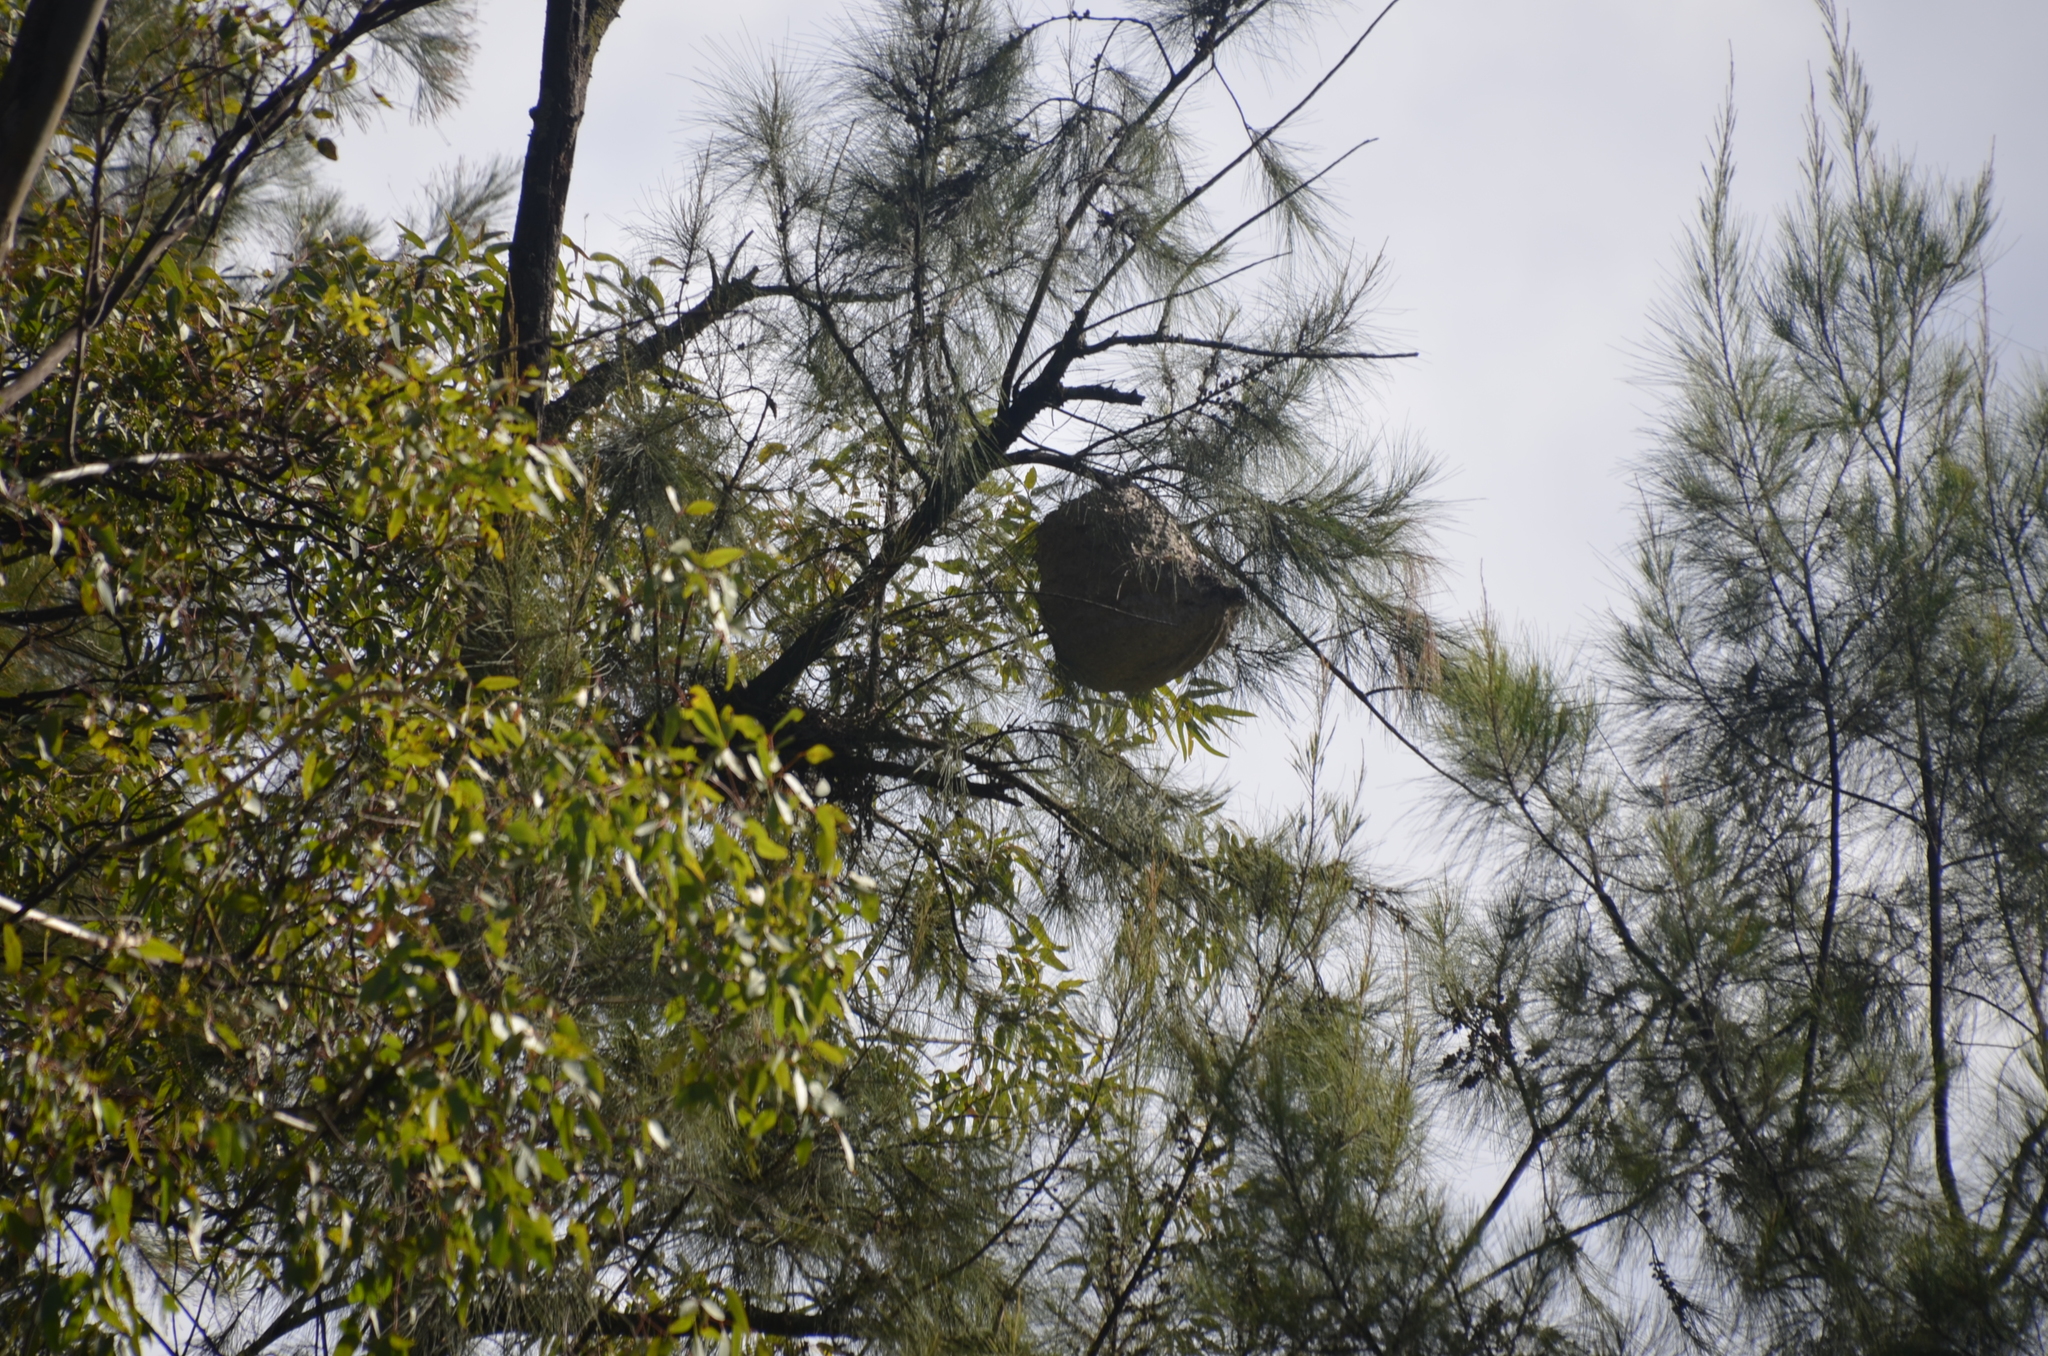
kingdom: Animalia
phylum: Arthropoda
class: Insecta
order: Hymenoptera
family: Eumenidae
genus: Polybia
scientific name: Polybia scutellaris
